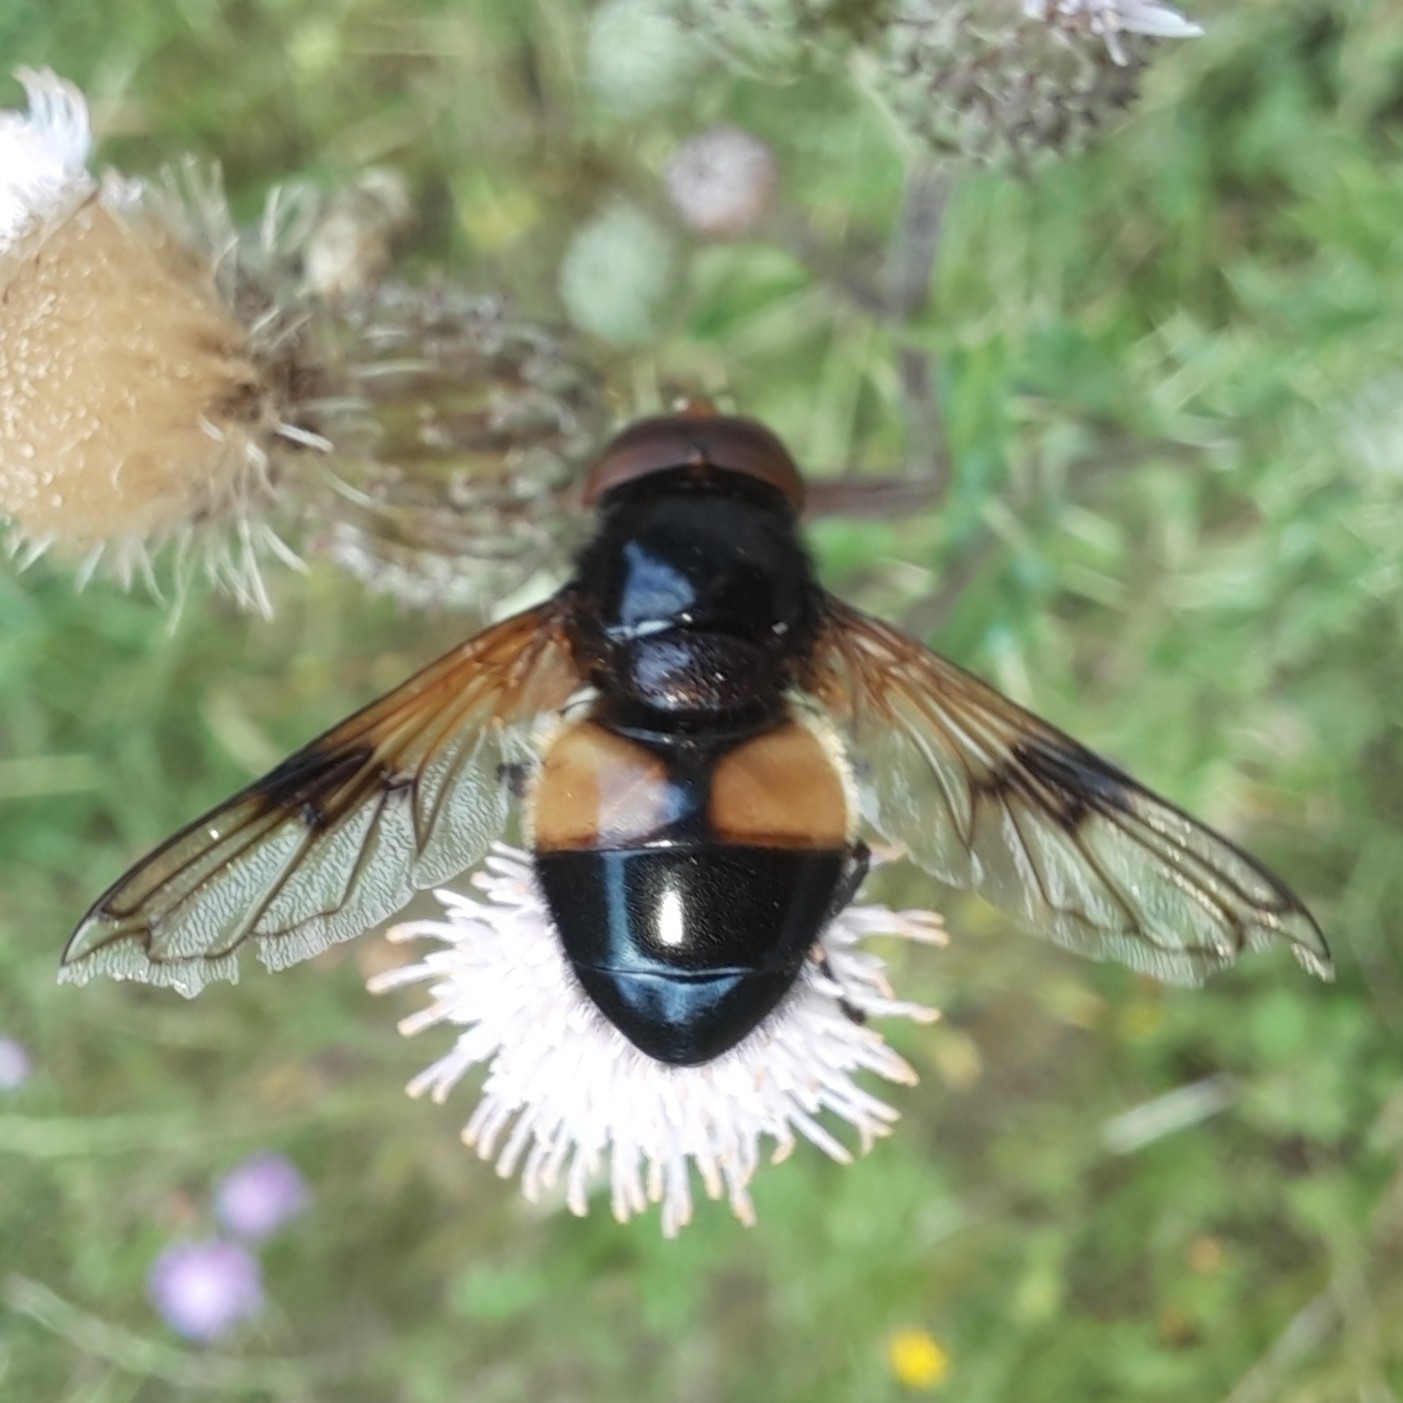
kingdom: Animalia
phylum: Arthropoda
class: Insecta
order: Diptera
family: Syrphidae
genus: Volucella
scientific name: Volucella pellucens
